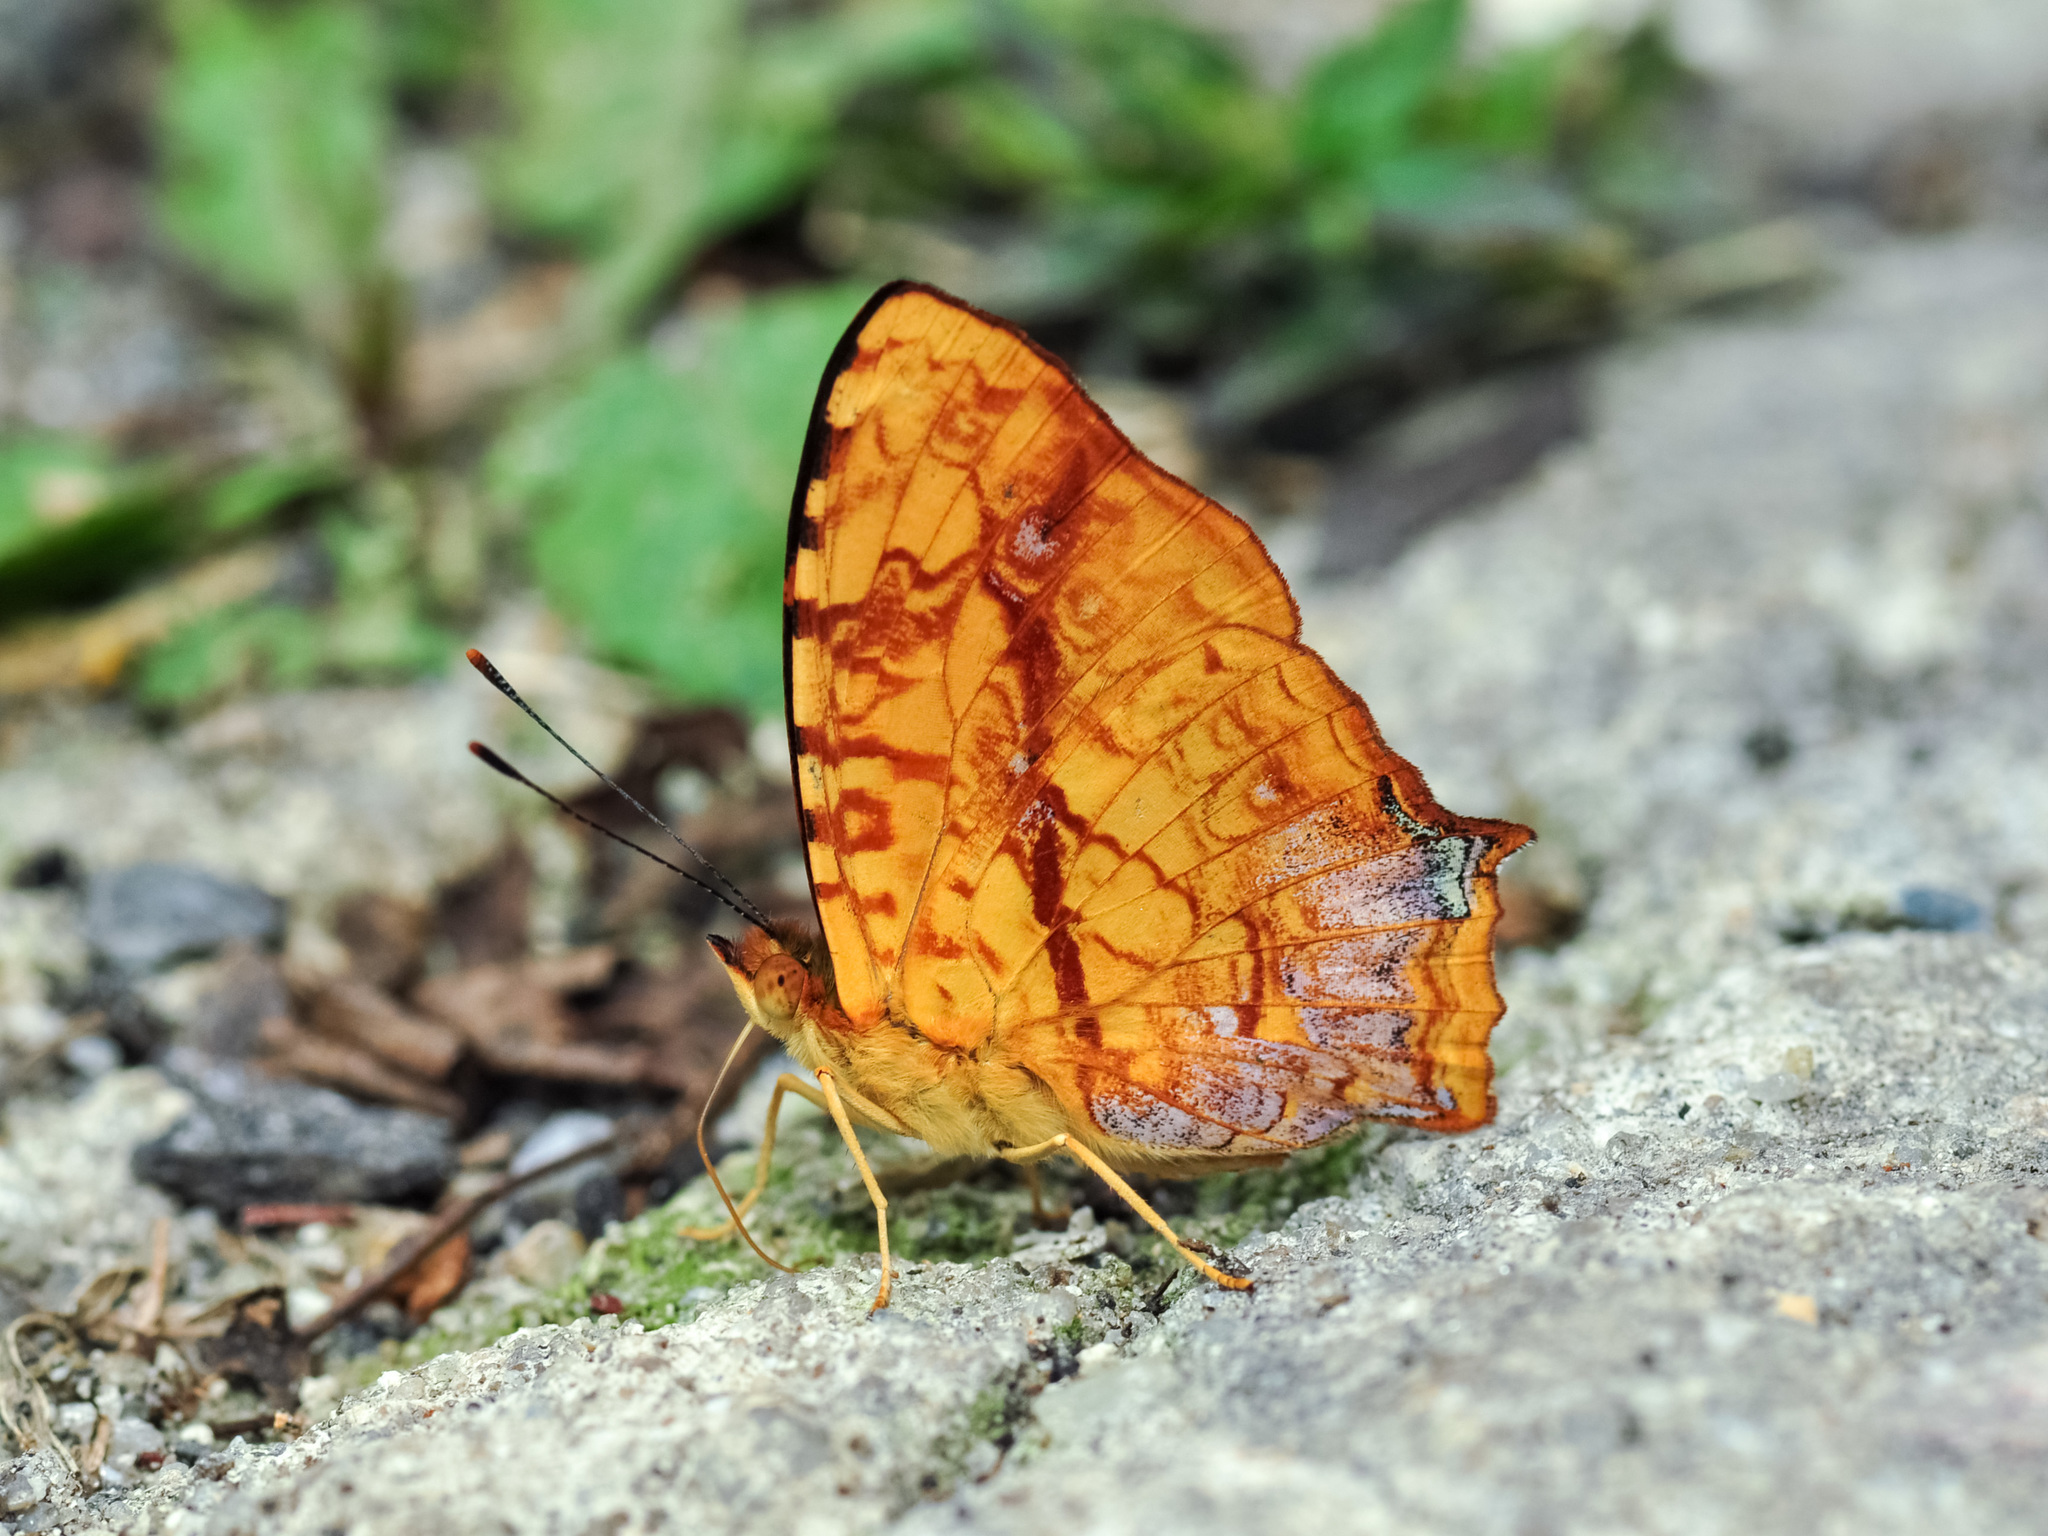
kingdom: Animalia
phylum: Arthropoda
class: Insecta
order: Lepidoptera
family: Nymphalidae
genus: Symbrenthia
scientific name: Symbrenthia hypselis
